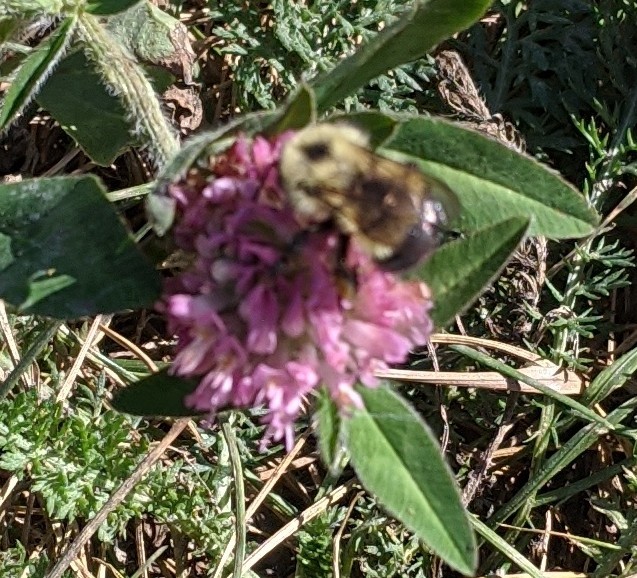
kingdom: Animalia
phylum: Arthropoda
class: Insecta
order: Hymenoptera
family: Apidae
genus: Pyrobombus
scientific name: Pyrobombus
